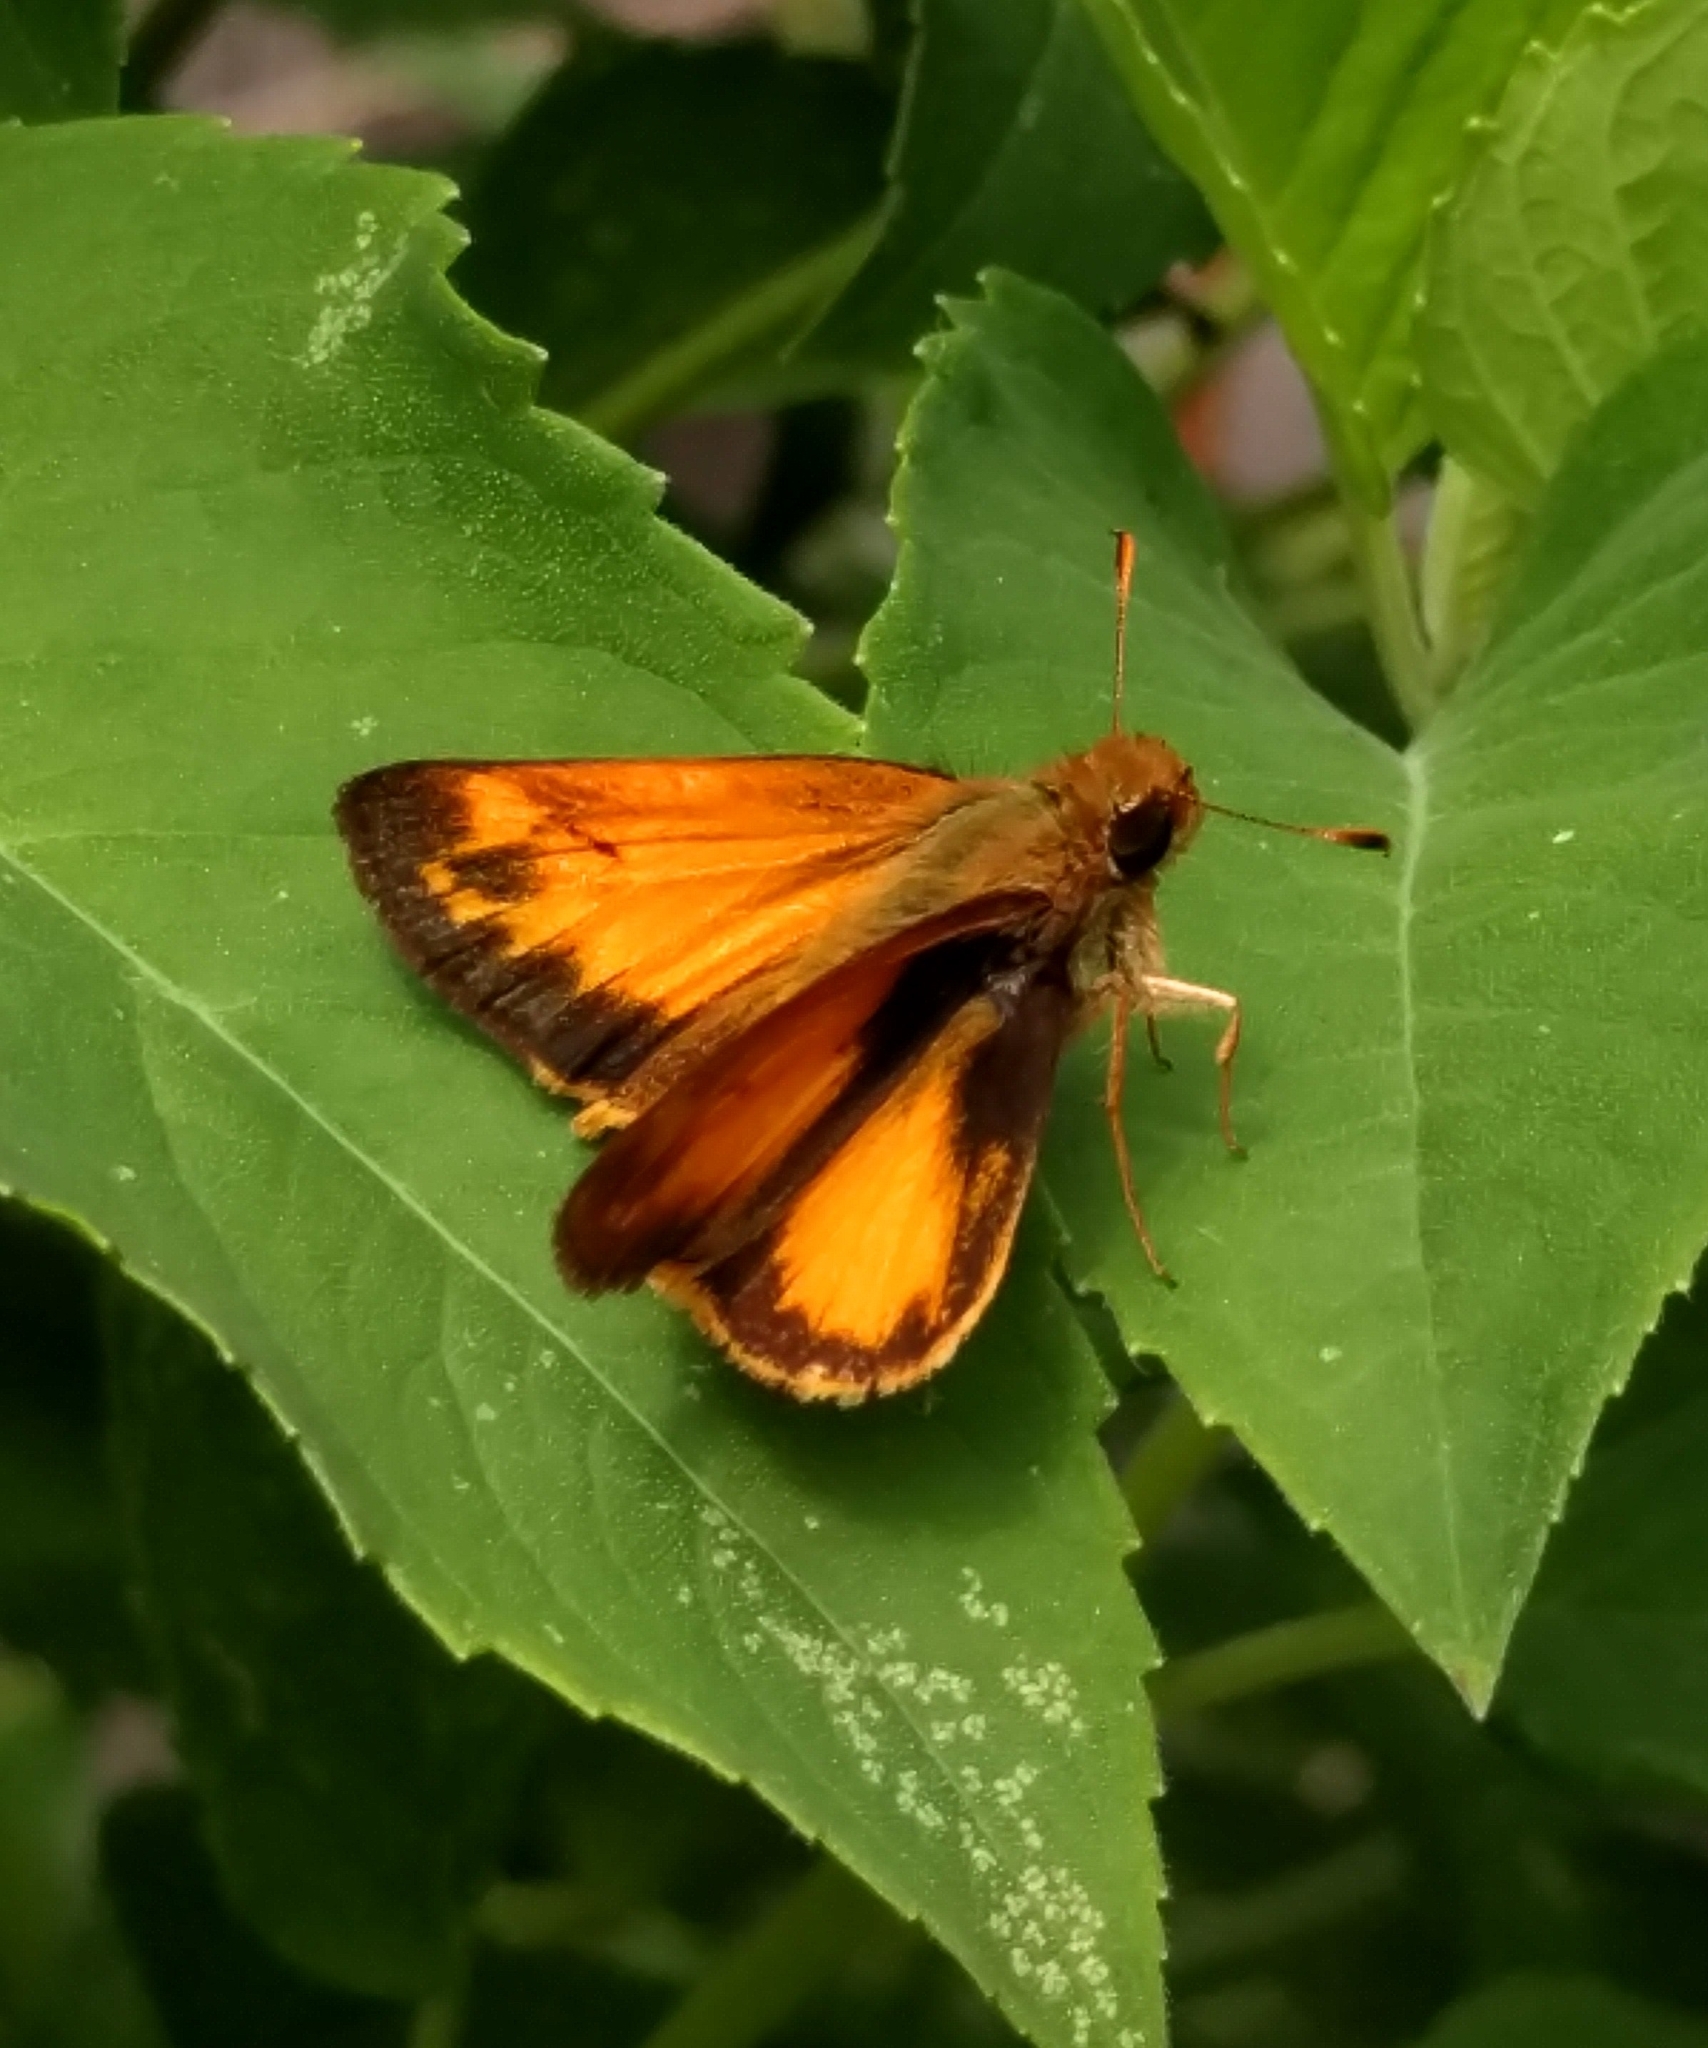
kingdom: Animalia
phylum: Arthropoda
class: Insecta
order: Lepidoptera
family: Hesperiidae
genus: Lon
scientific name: Lon zabulon
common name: Zabulon skipper
